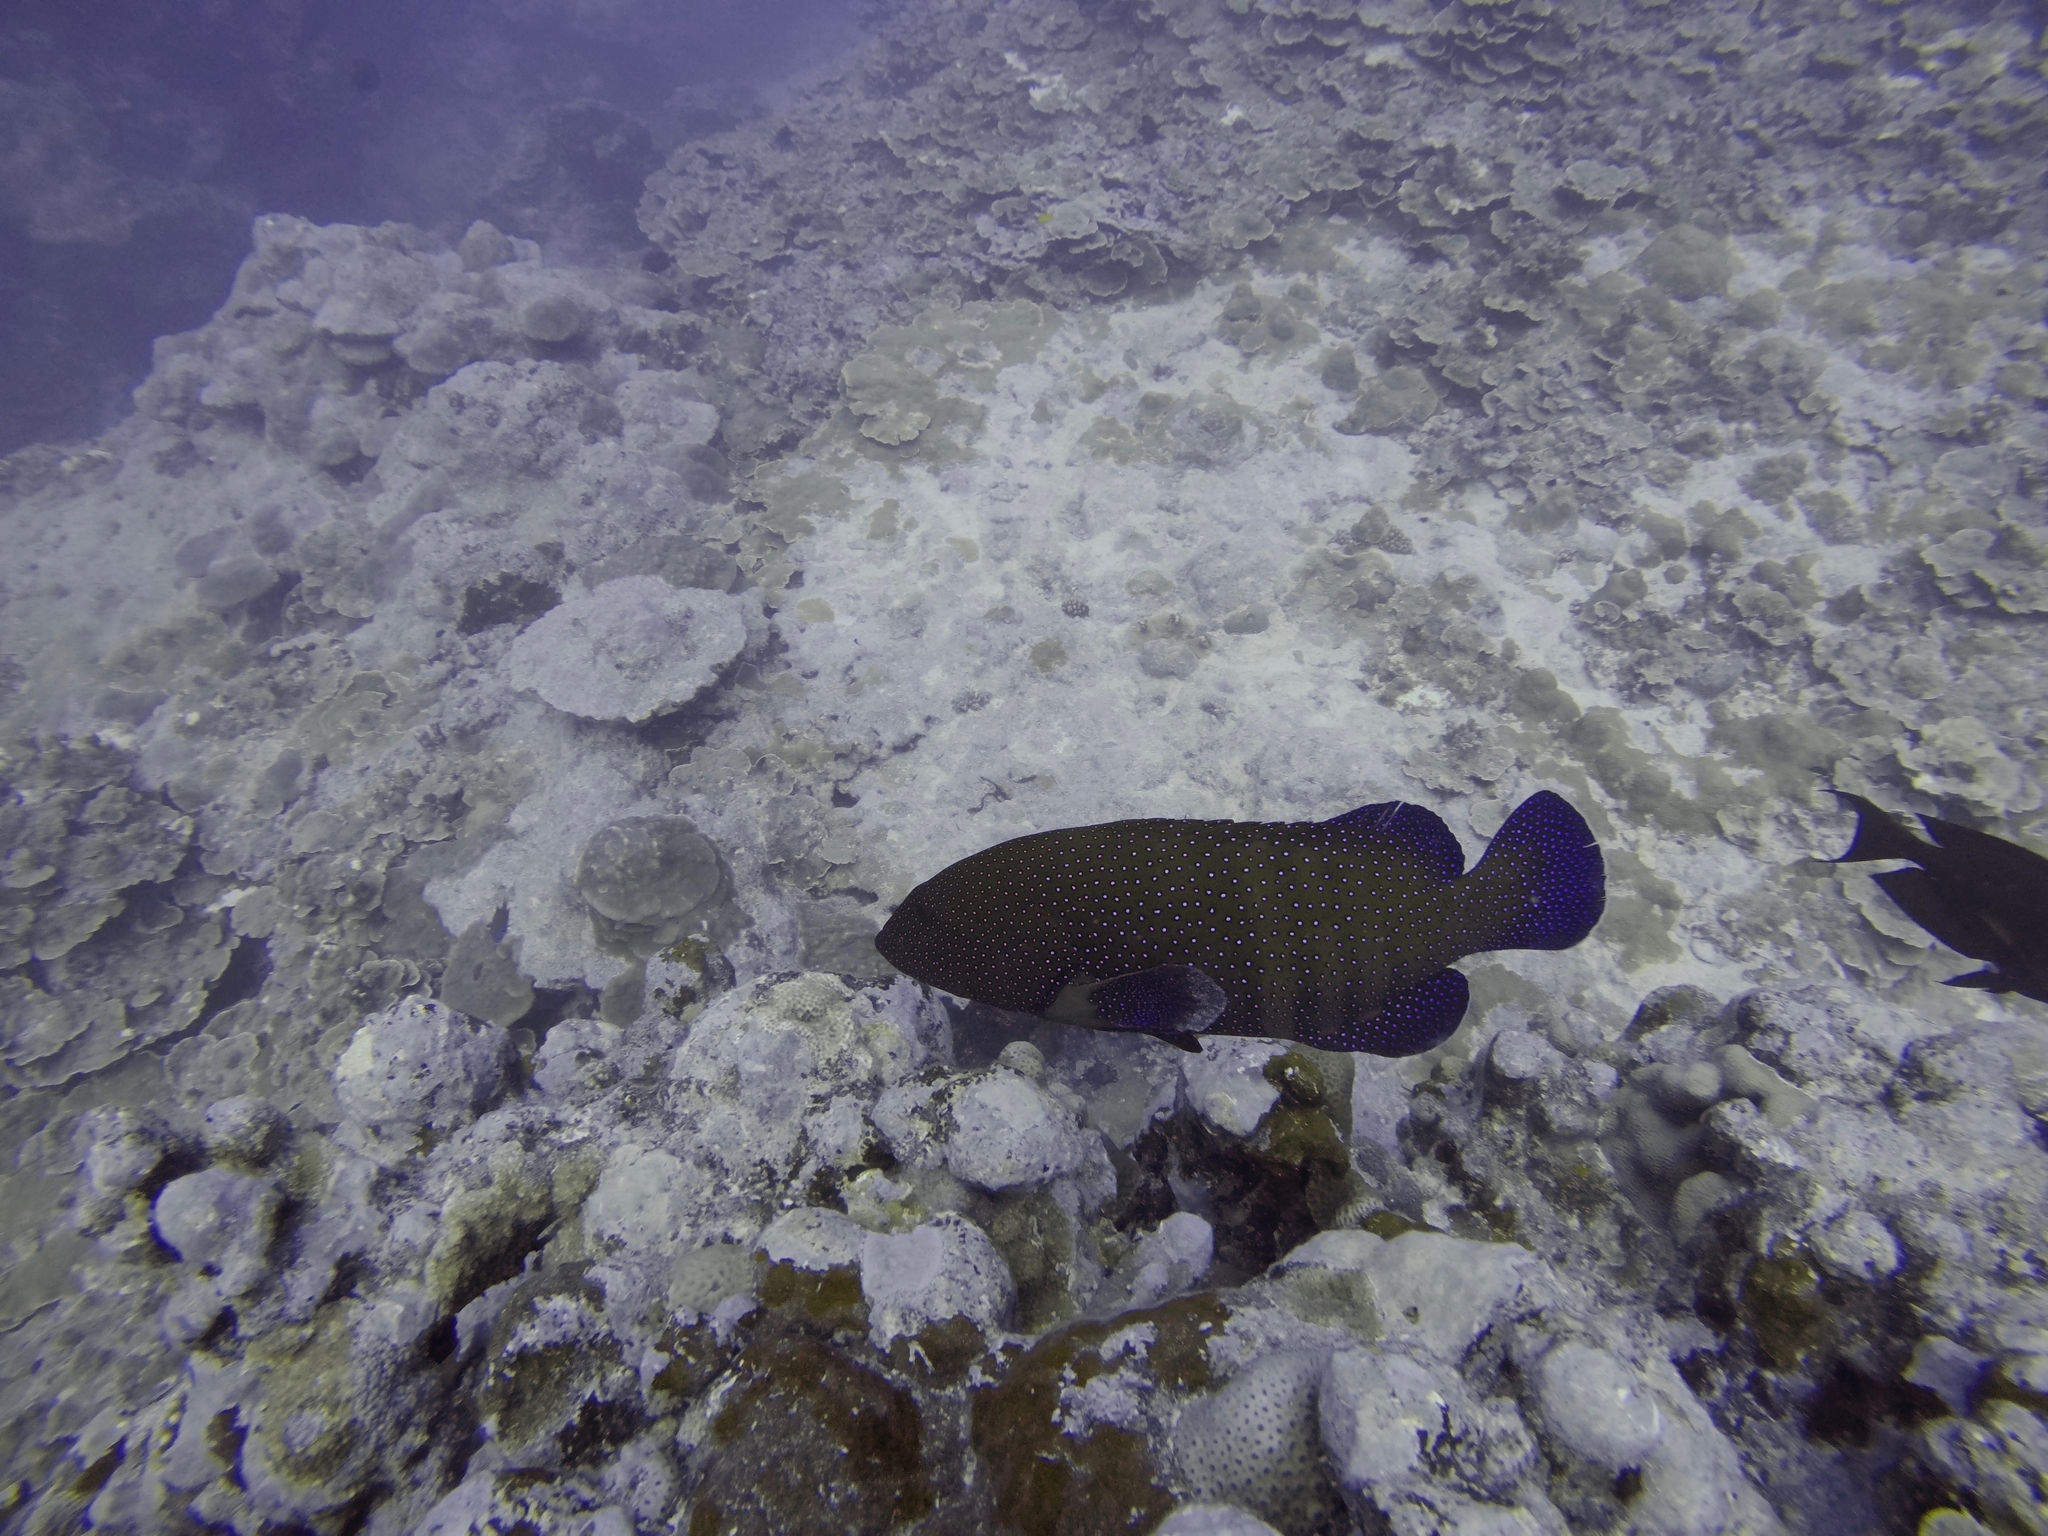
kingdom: Animalia
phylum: Chordata
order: Perciformes
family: Serranidae
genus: Cephalopholis
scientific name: Cephalopholis argus
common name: Peacock grouper
